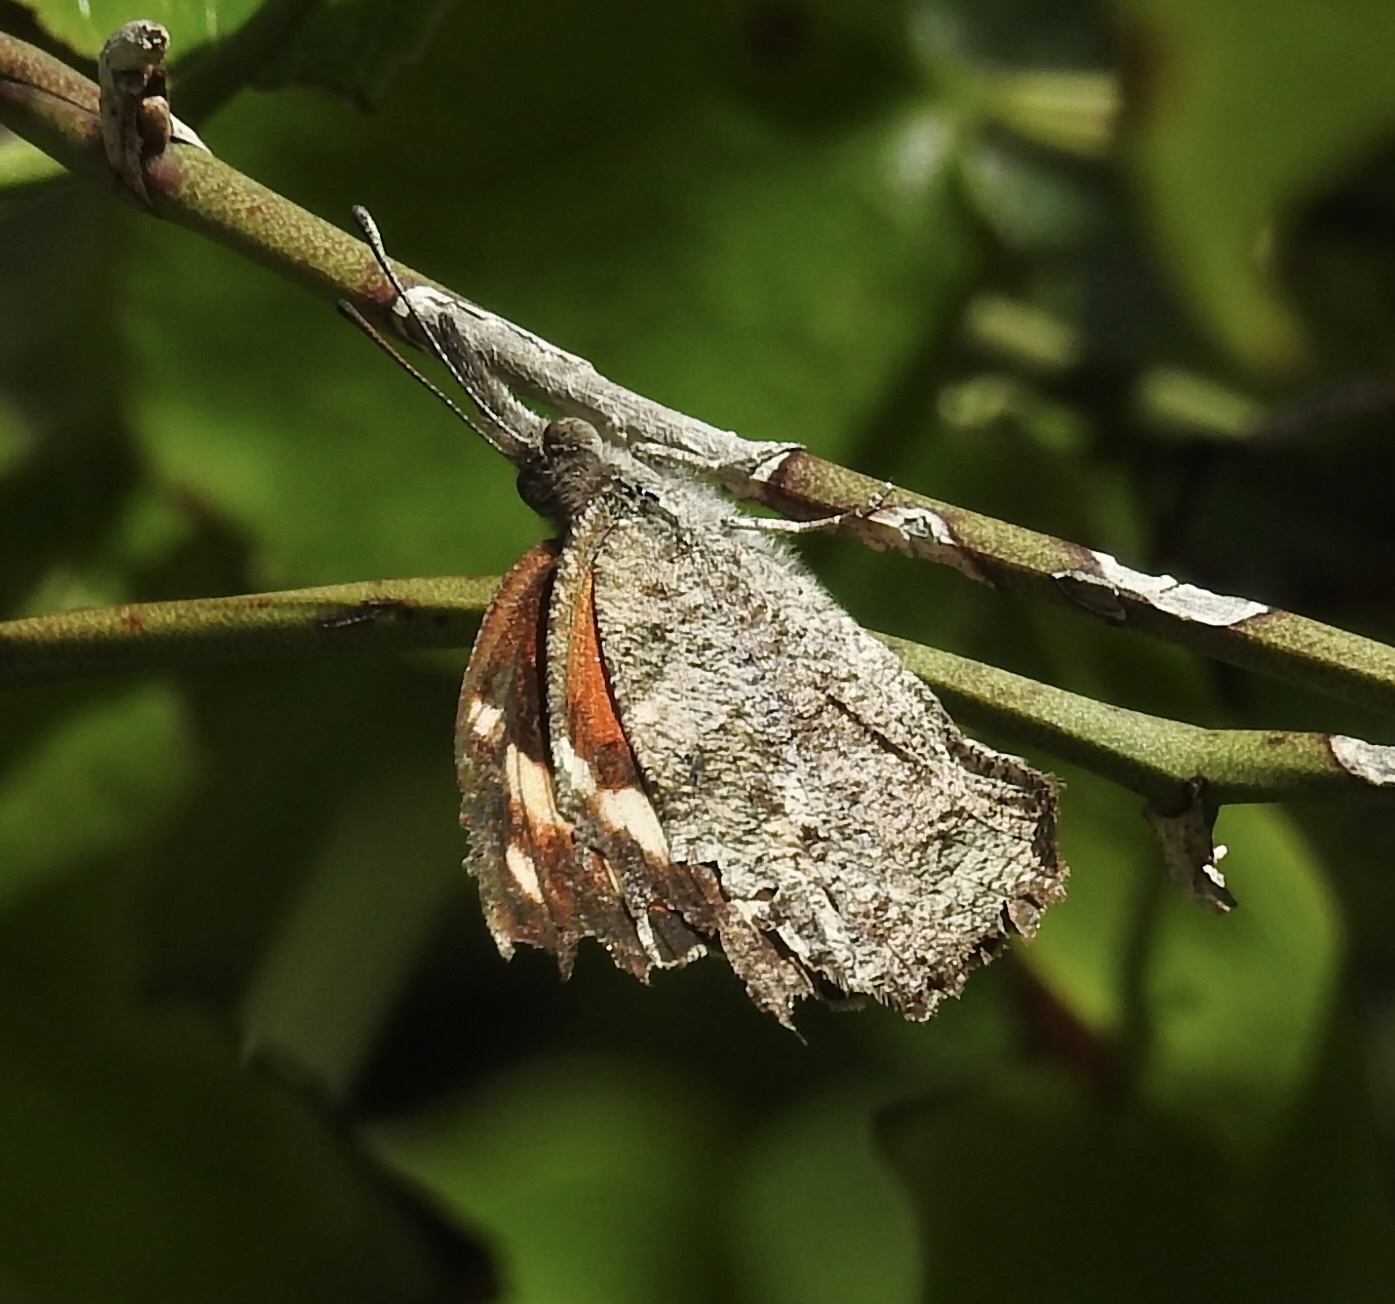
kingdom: Animalia
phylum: Arthropoda
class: Insecta
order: Lepidoptera
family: Nymphalidae
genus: Libytheana
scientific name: Libytheana carinenta
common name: American snout
